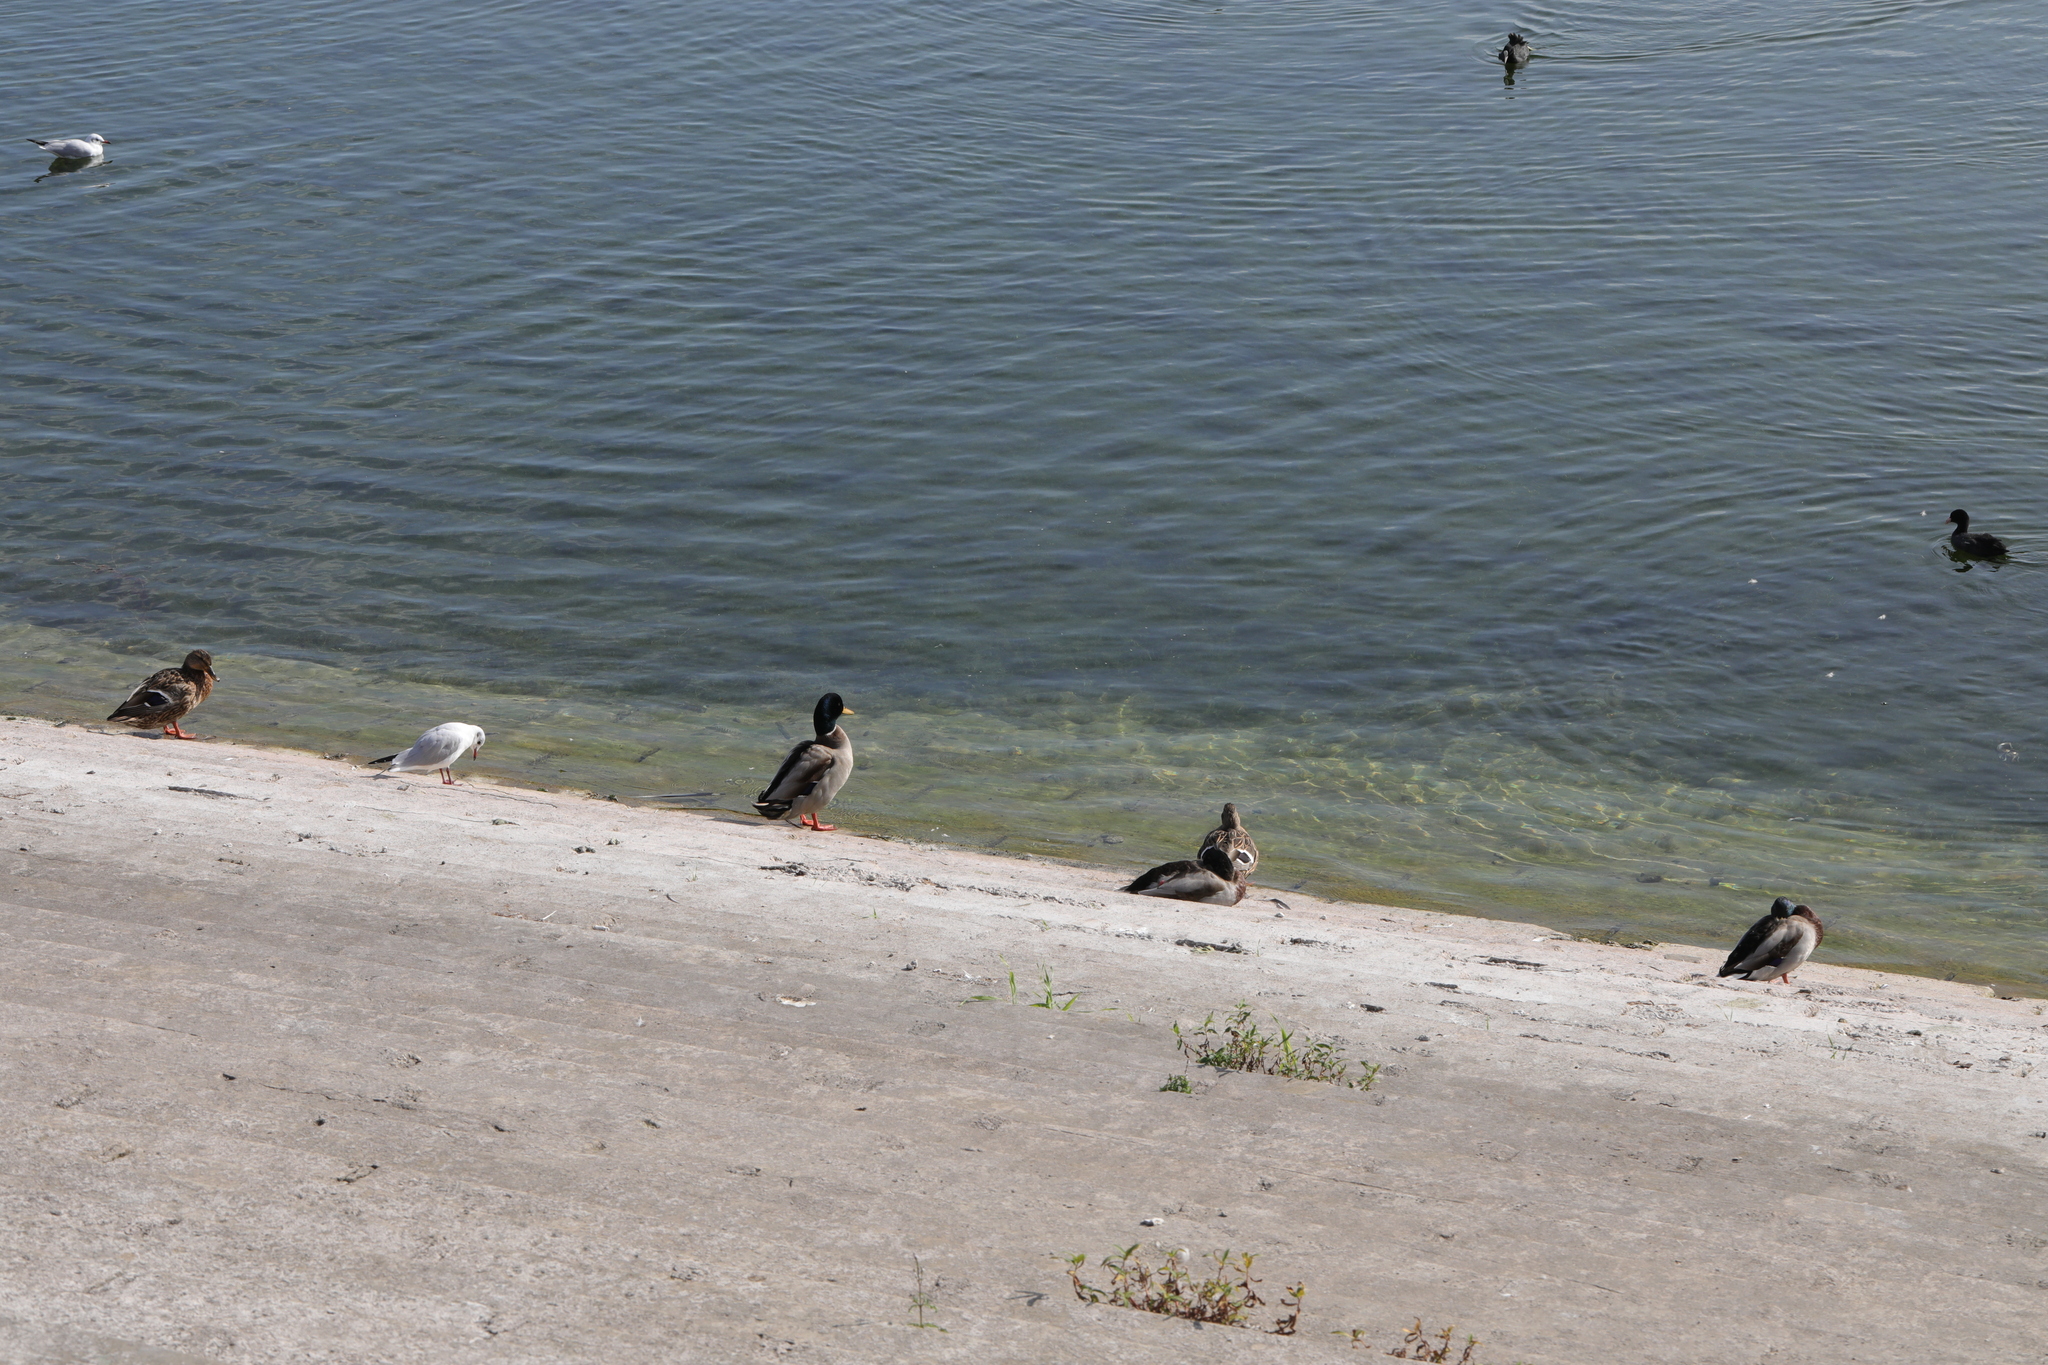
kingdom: Animalia
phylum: Chordata
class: Aves
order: Anseriformes
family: Anatidae
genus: Anas
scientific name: Anas platyrhynchos
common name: Mallard
